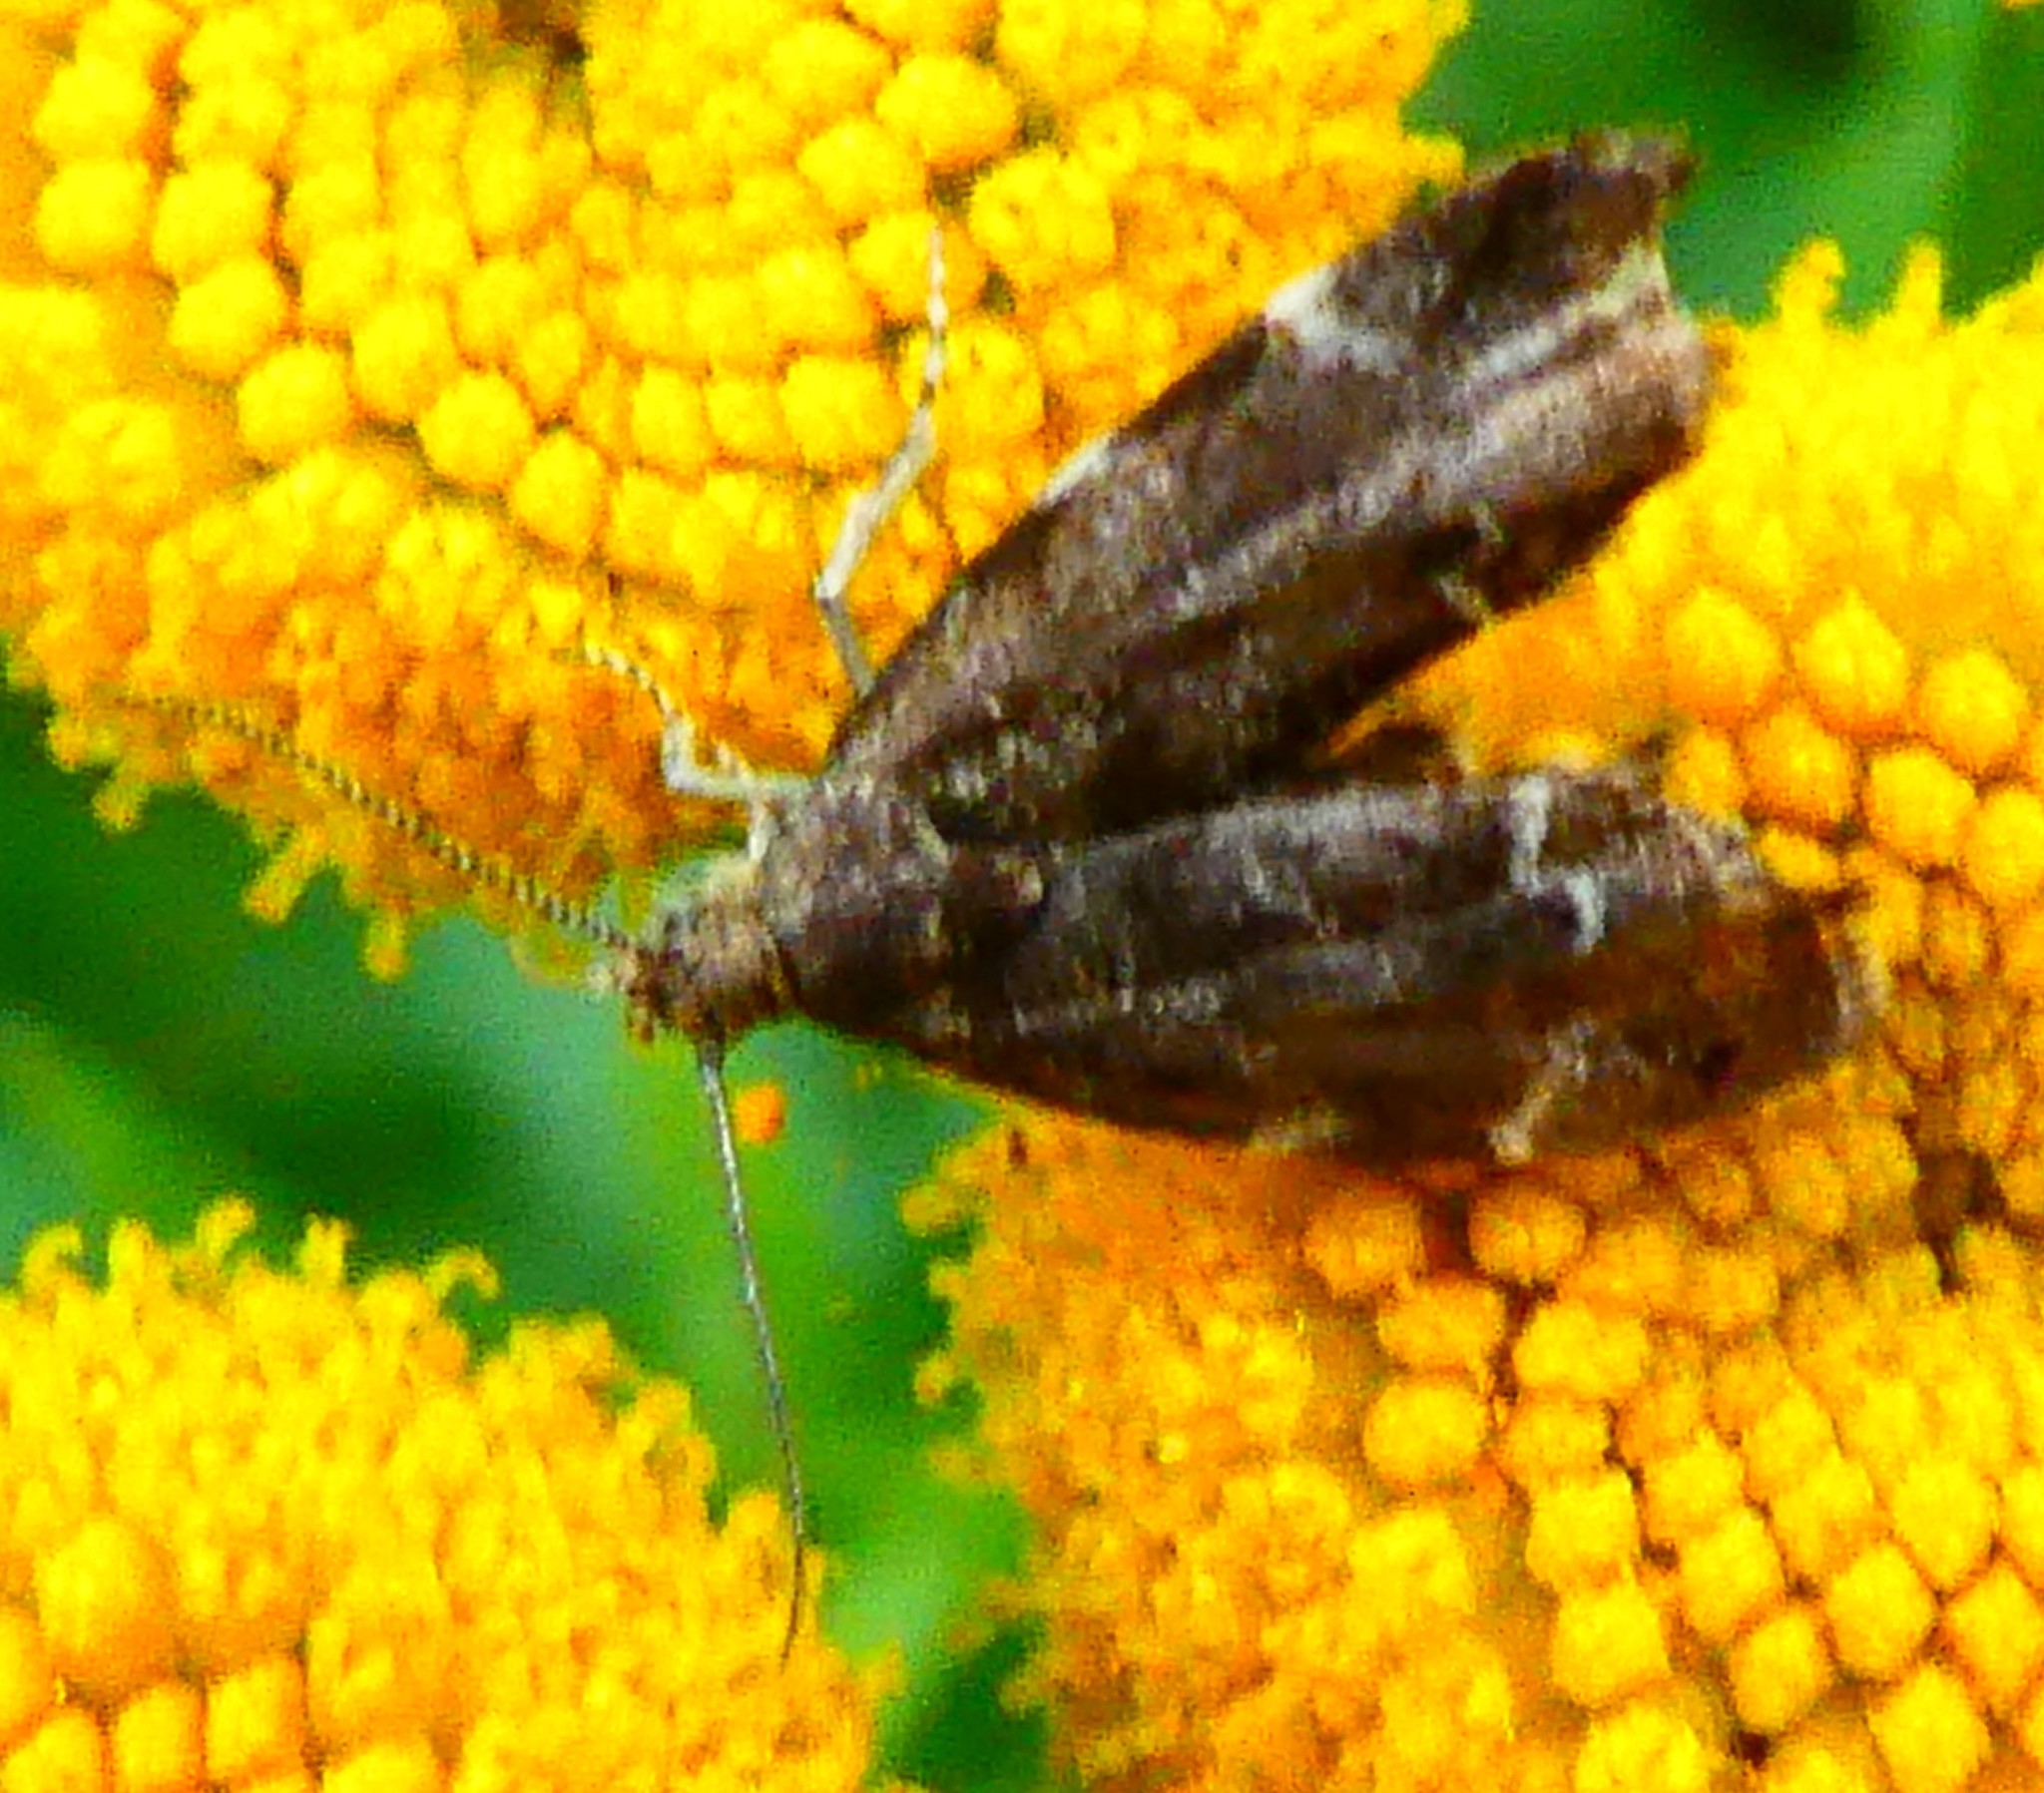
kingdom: Animalia
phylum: Arthropoda
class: Insecta
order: Lepidoptera
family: Choreutidae
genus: Anthophila
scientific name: Anthophila fabriciana
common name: Nettle-tap
